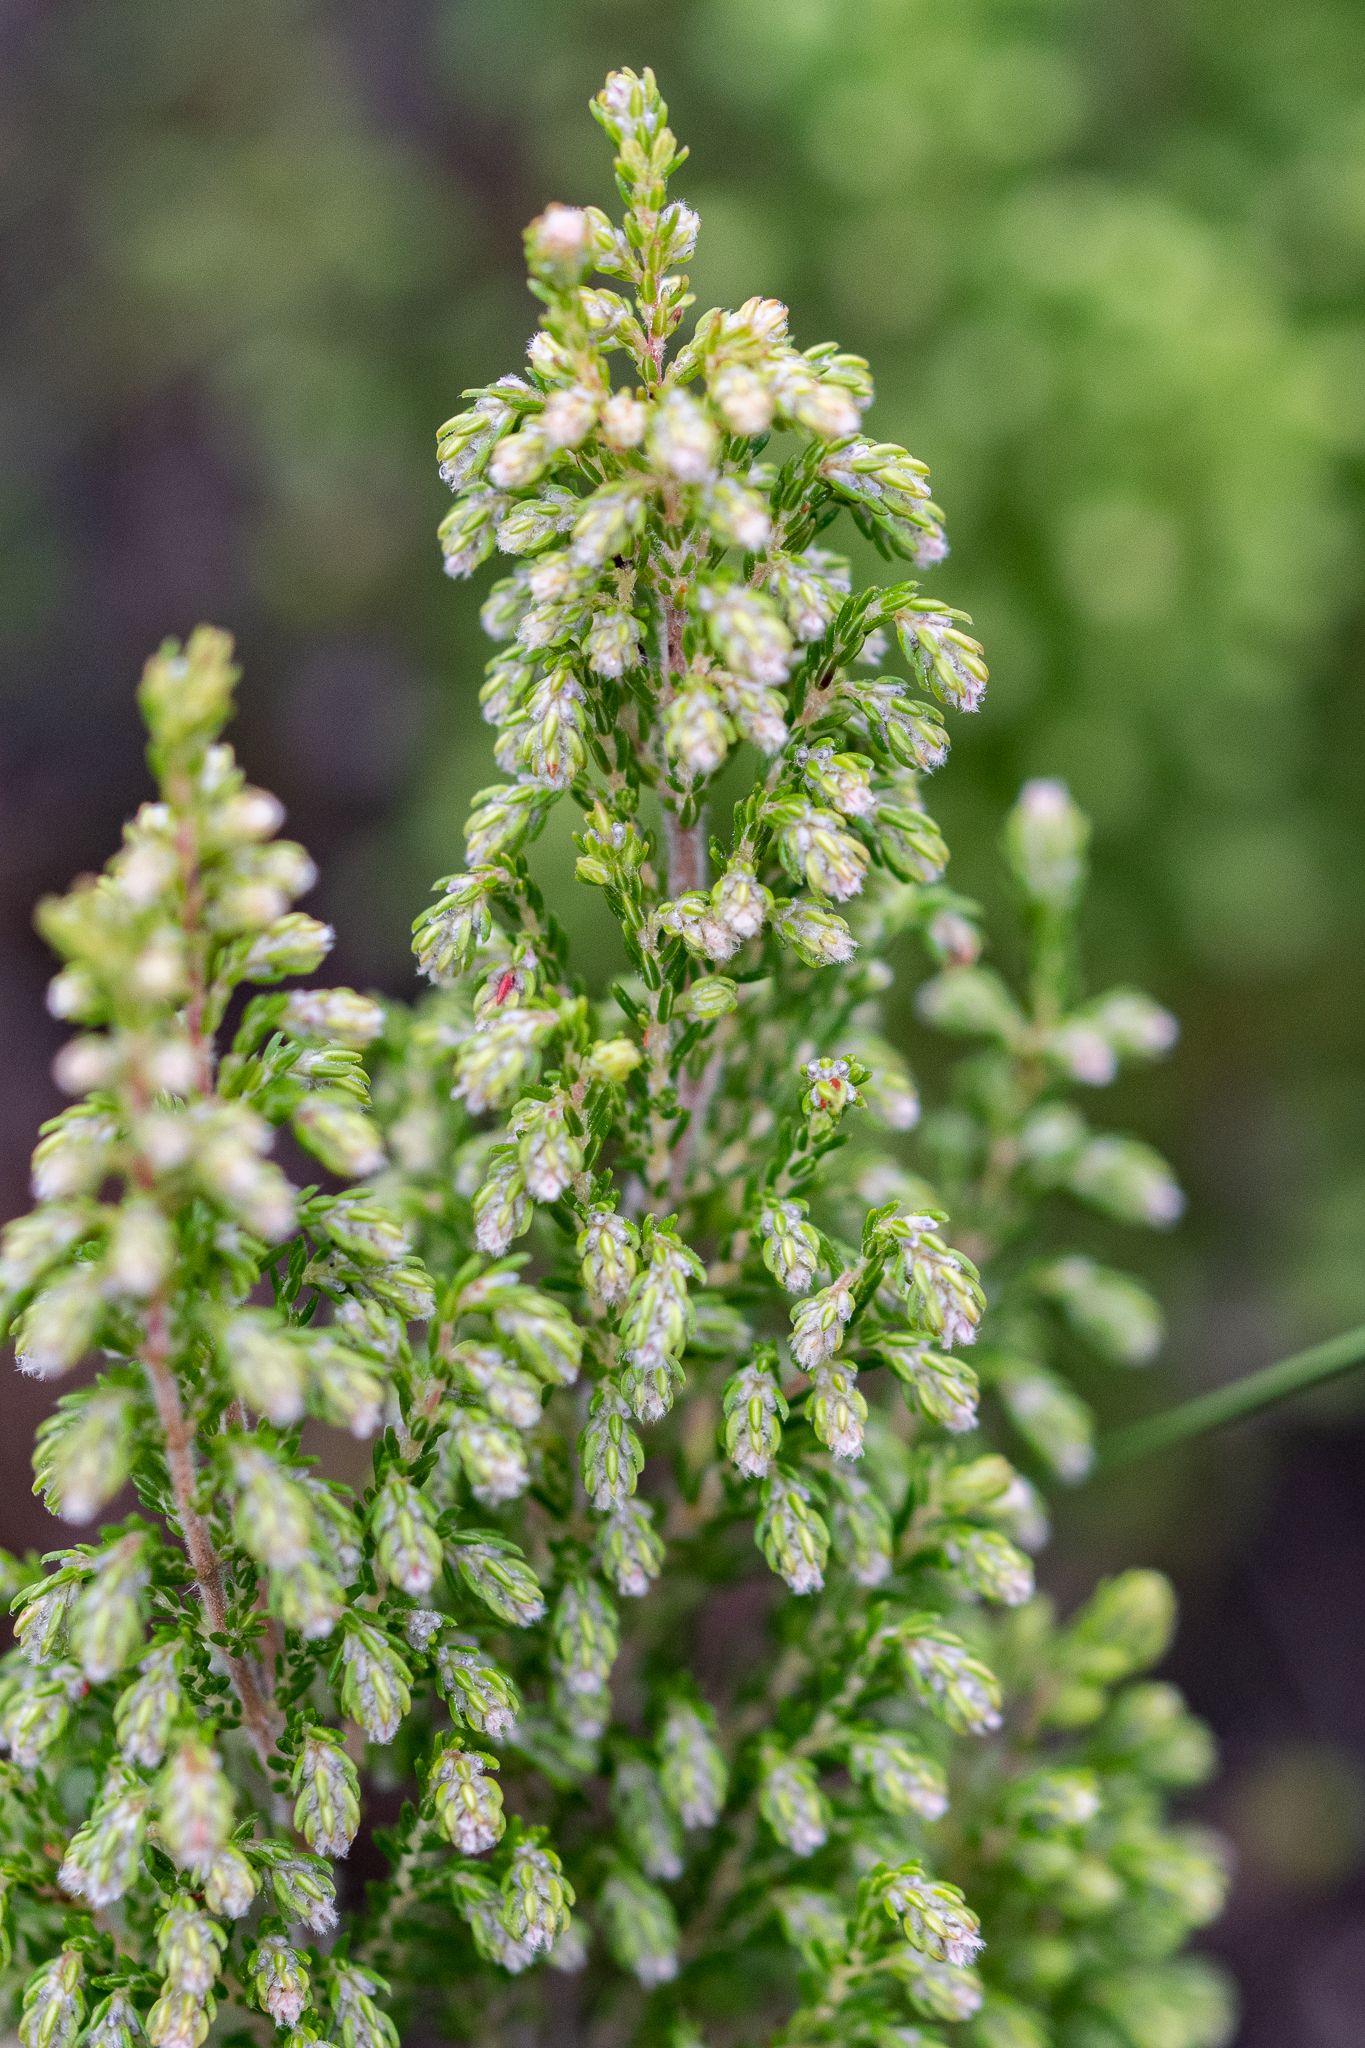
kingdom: Plantae
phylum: Tracheophyta
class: Magnoliopsida
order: Ericales
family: Ericaceae
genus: Erica
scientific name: Erica ecklonii
